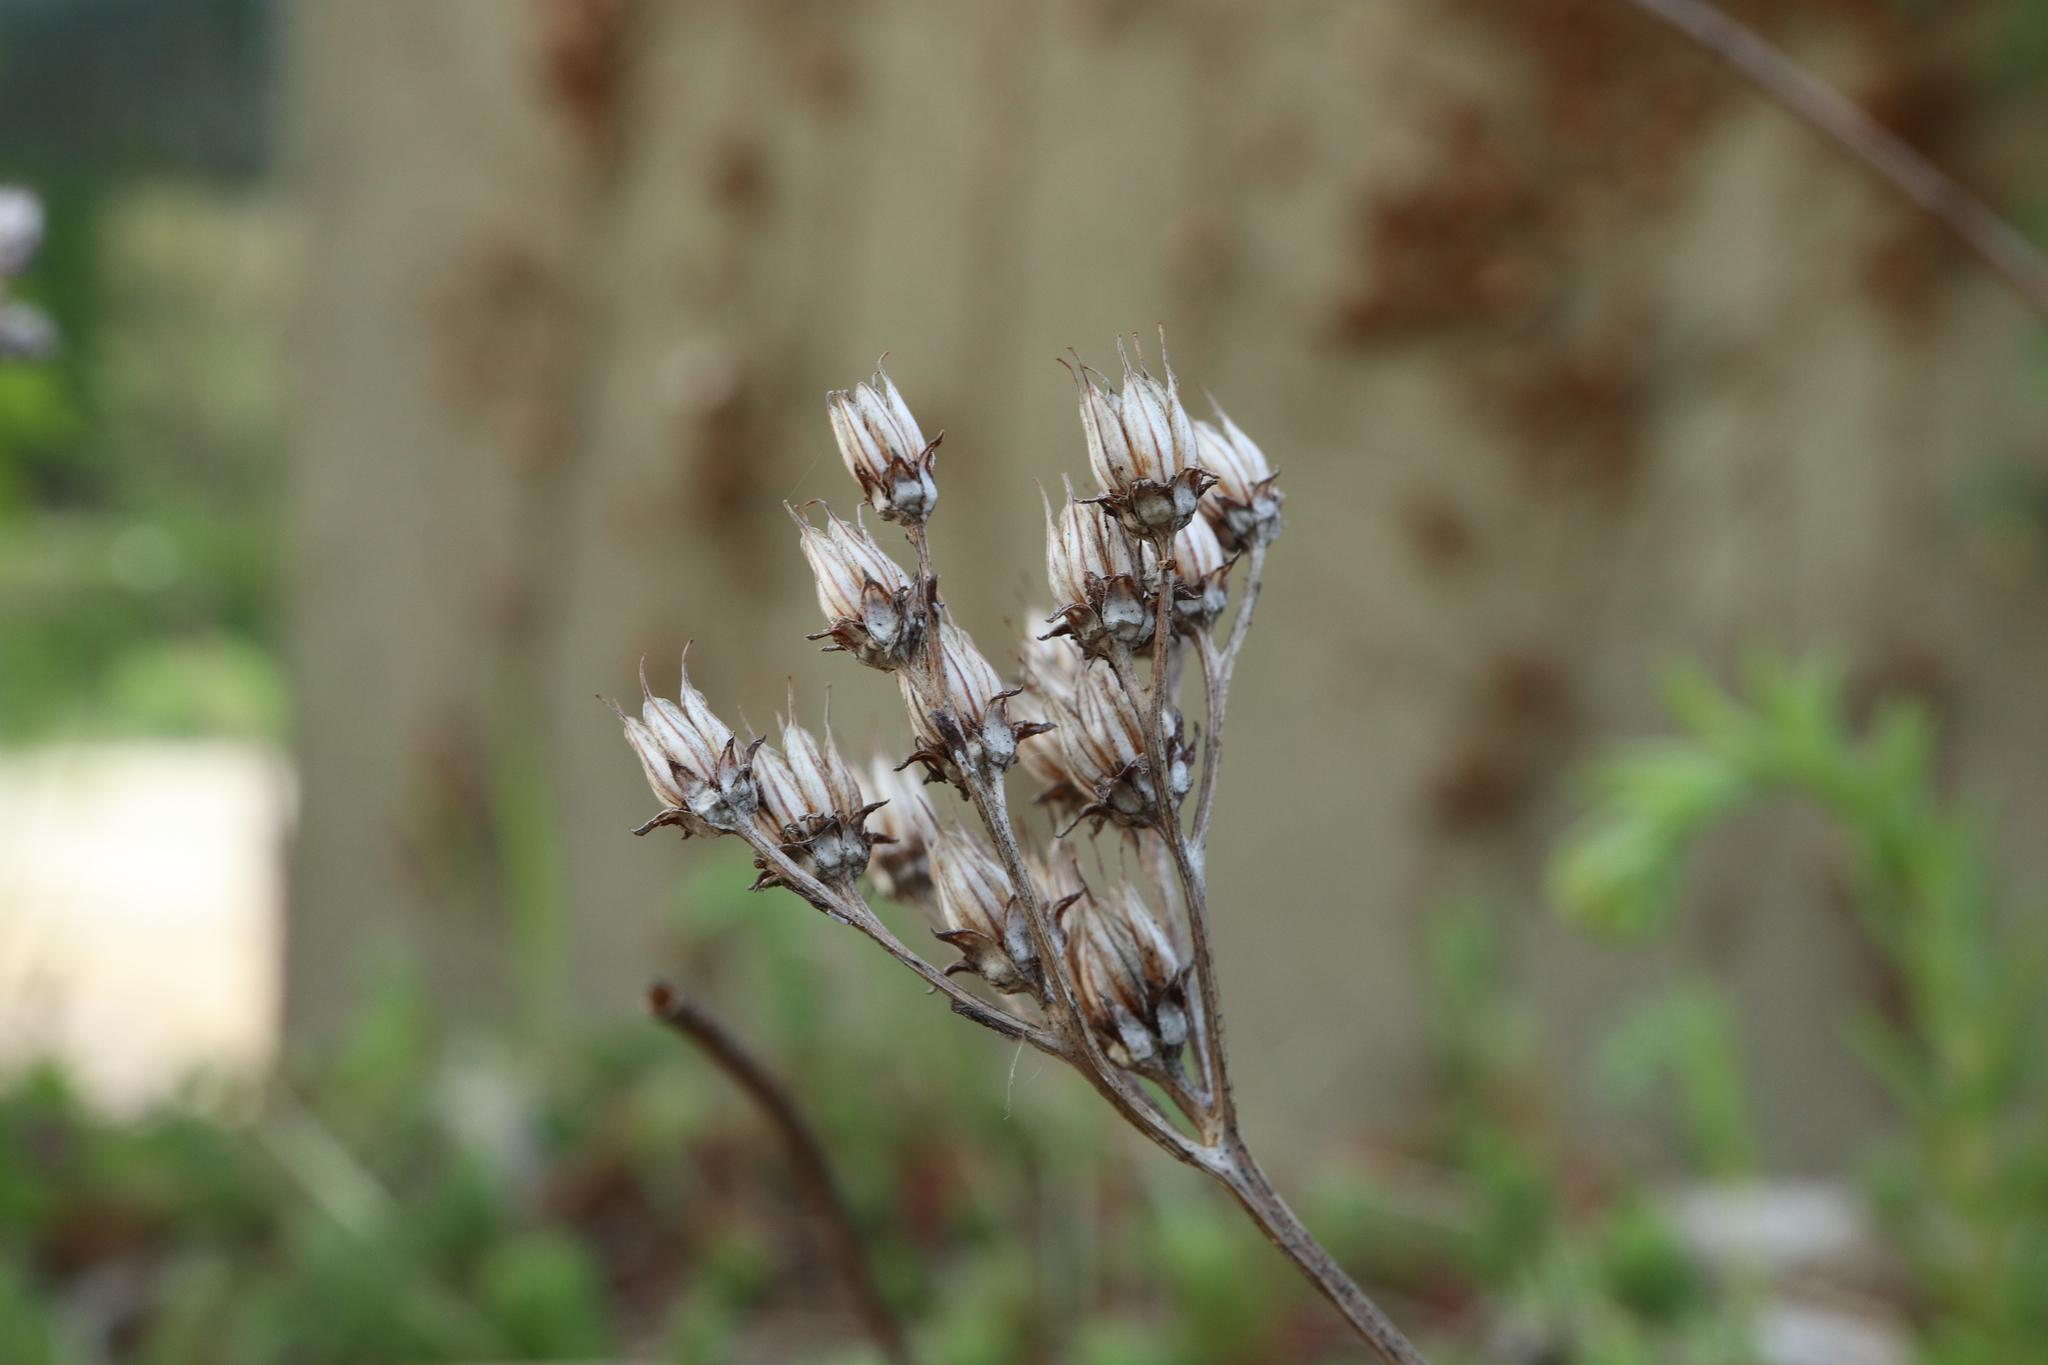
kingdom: Plantae
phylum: Tracheophyta
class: Magnoliopsida
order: Saxifragales
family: Crassulaceae
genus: Petrosedum
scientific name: Petrosedum rupestre
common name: Jenny's stonecrop
